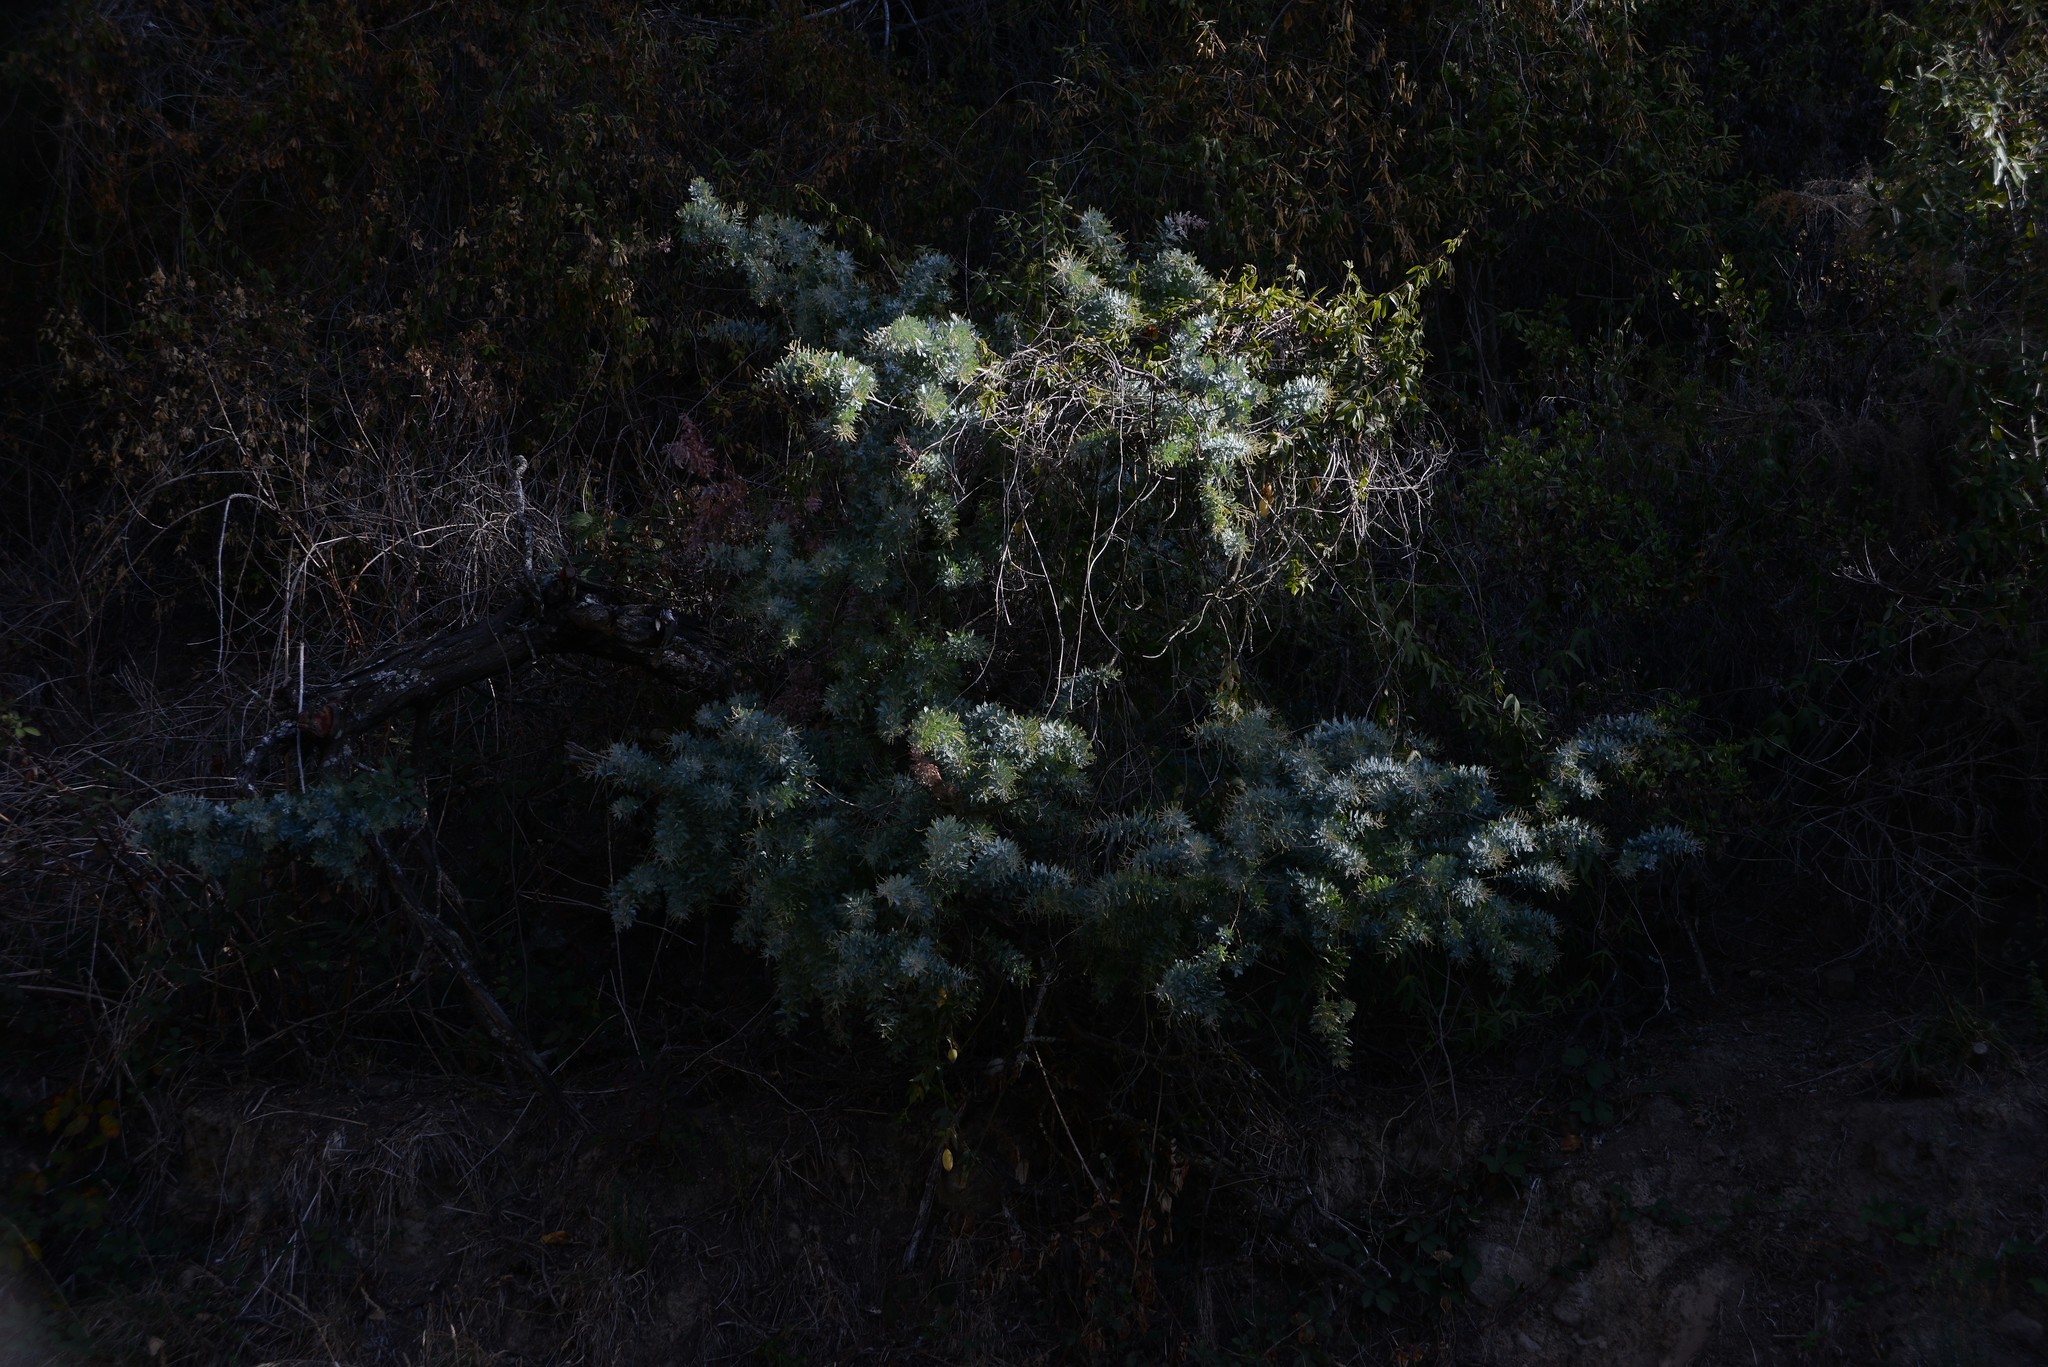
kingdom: Plantae
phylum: Tracheophyta
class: Magnoliopsida
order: Fabales
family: Fabaceae
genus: Acacia
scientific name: Acacia baileyana
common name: Cootamundra wattle
